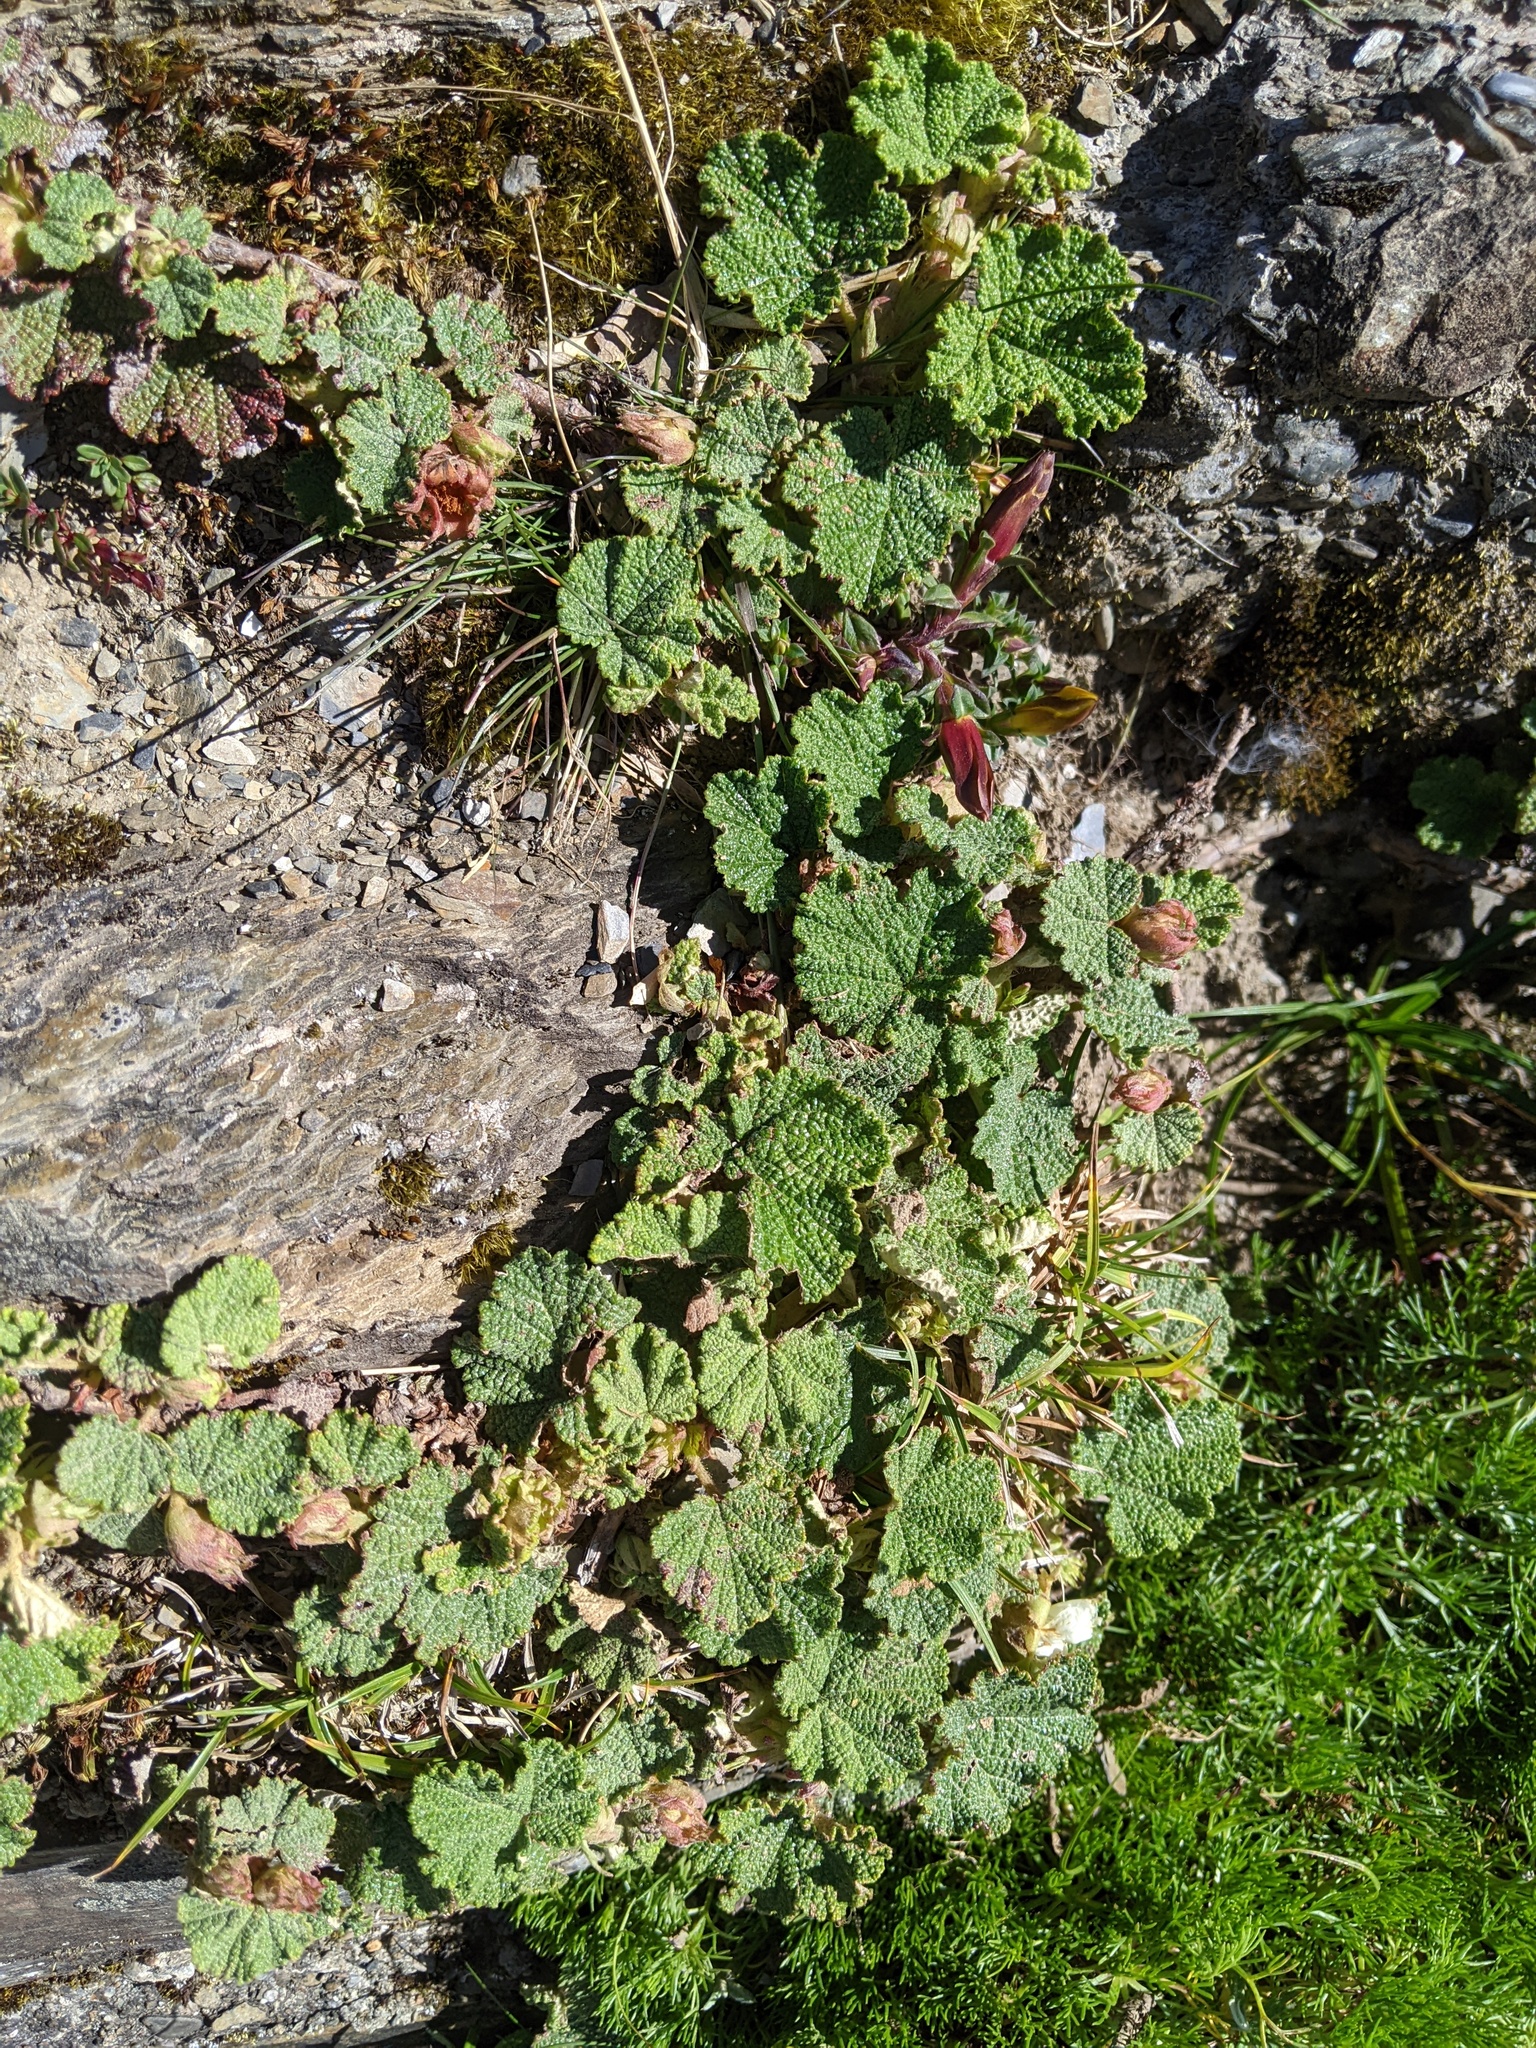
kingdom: Plantae
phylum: Tracheophyta
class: Magnoliopsida
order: Rosales
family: Rosaceae
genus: Rubus
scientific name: Rubus rolfei
